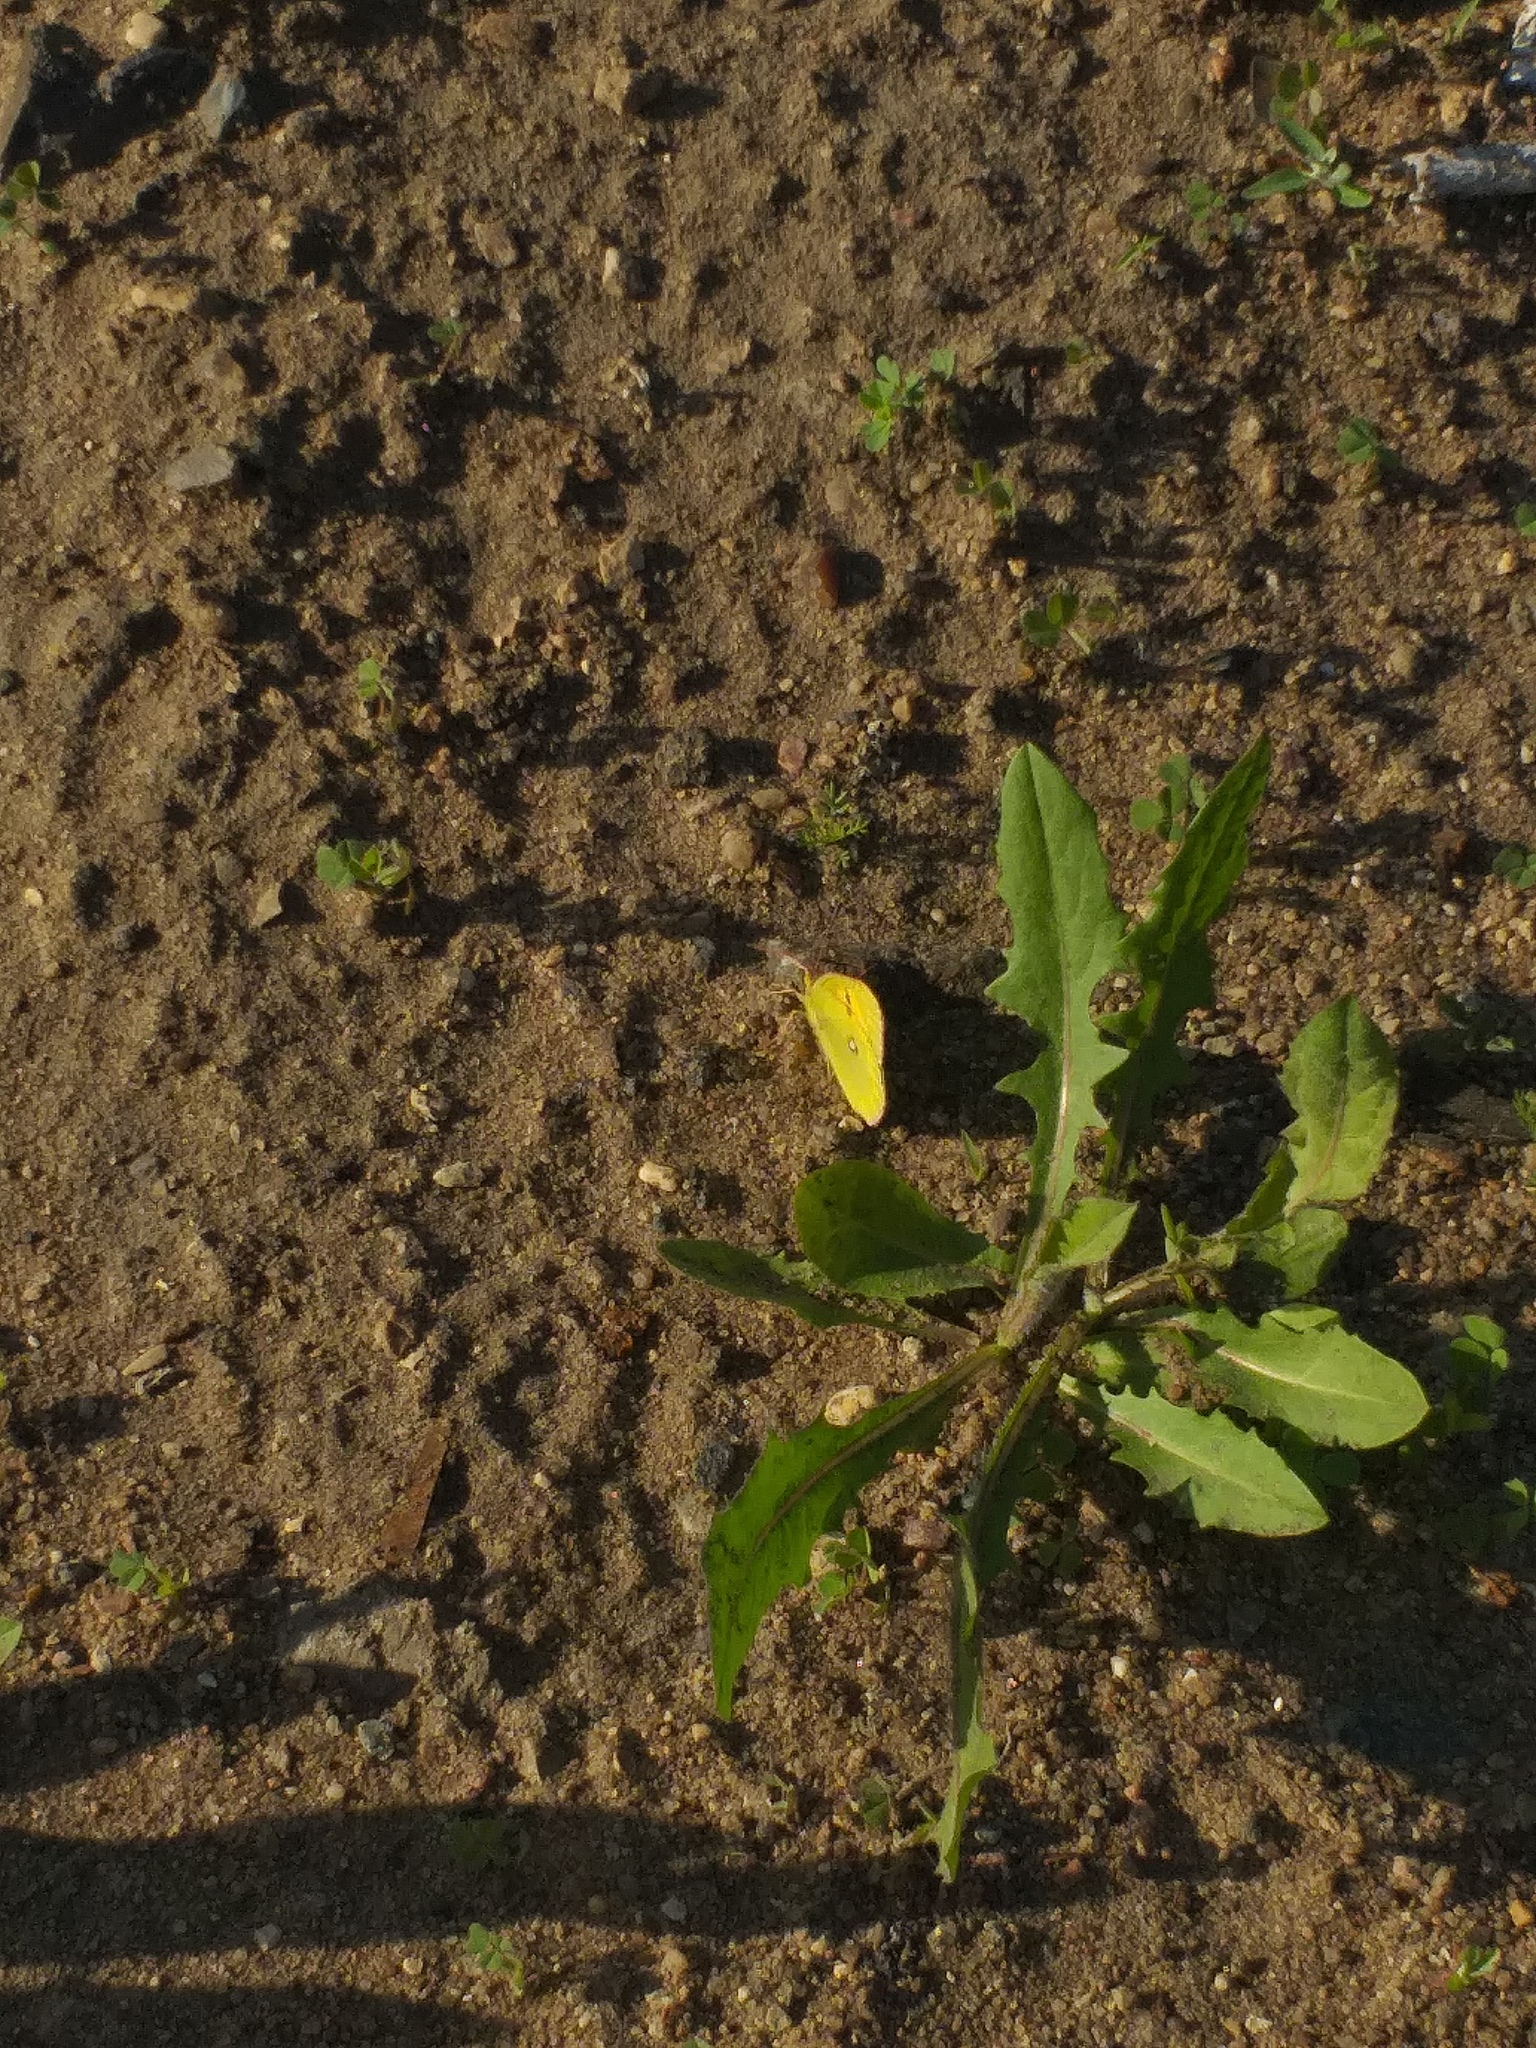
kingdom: Animalia
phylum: Arthropoda
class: Insecta
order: Lepidoptera
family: Pieridae
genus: Colias
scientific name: Colias hyale
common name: Pale clouded yellow
